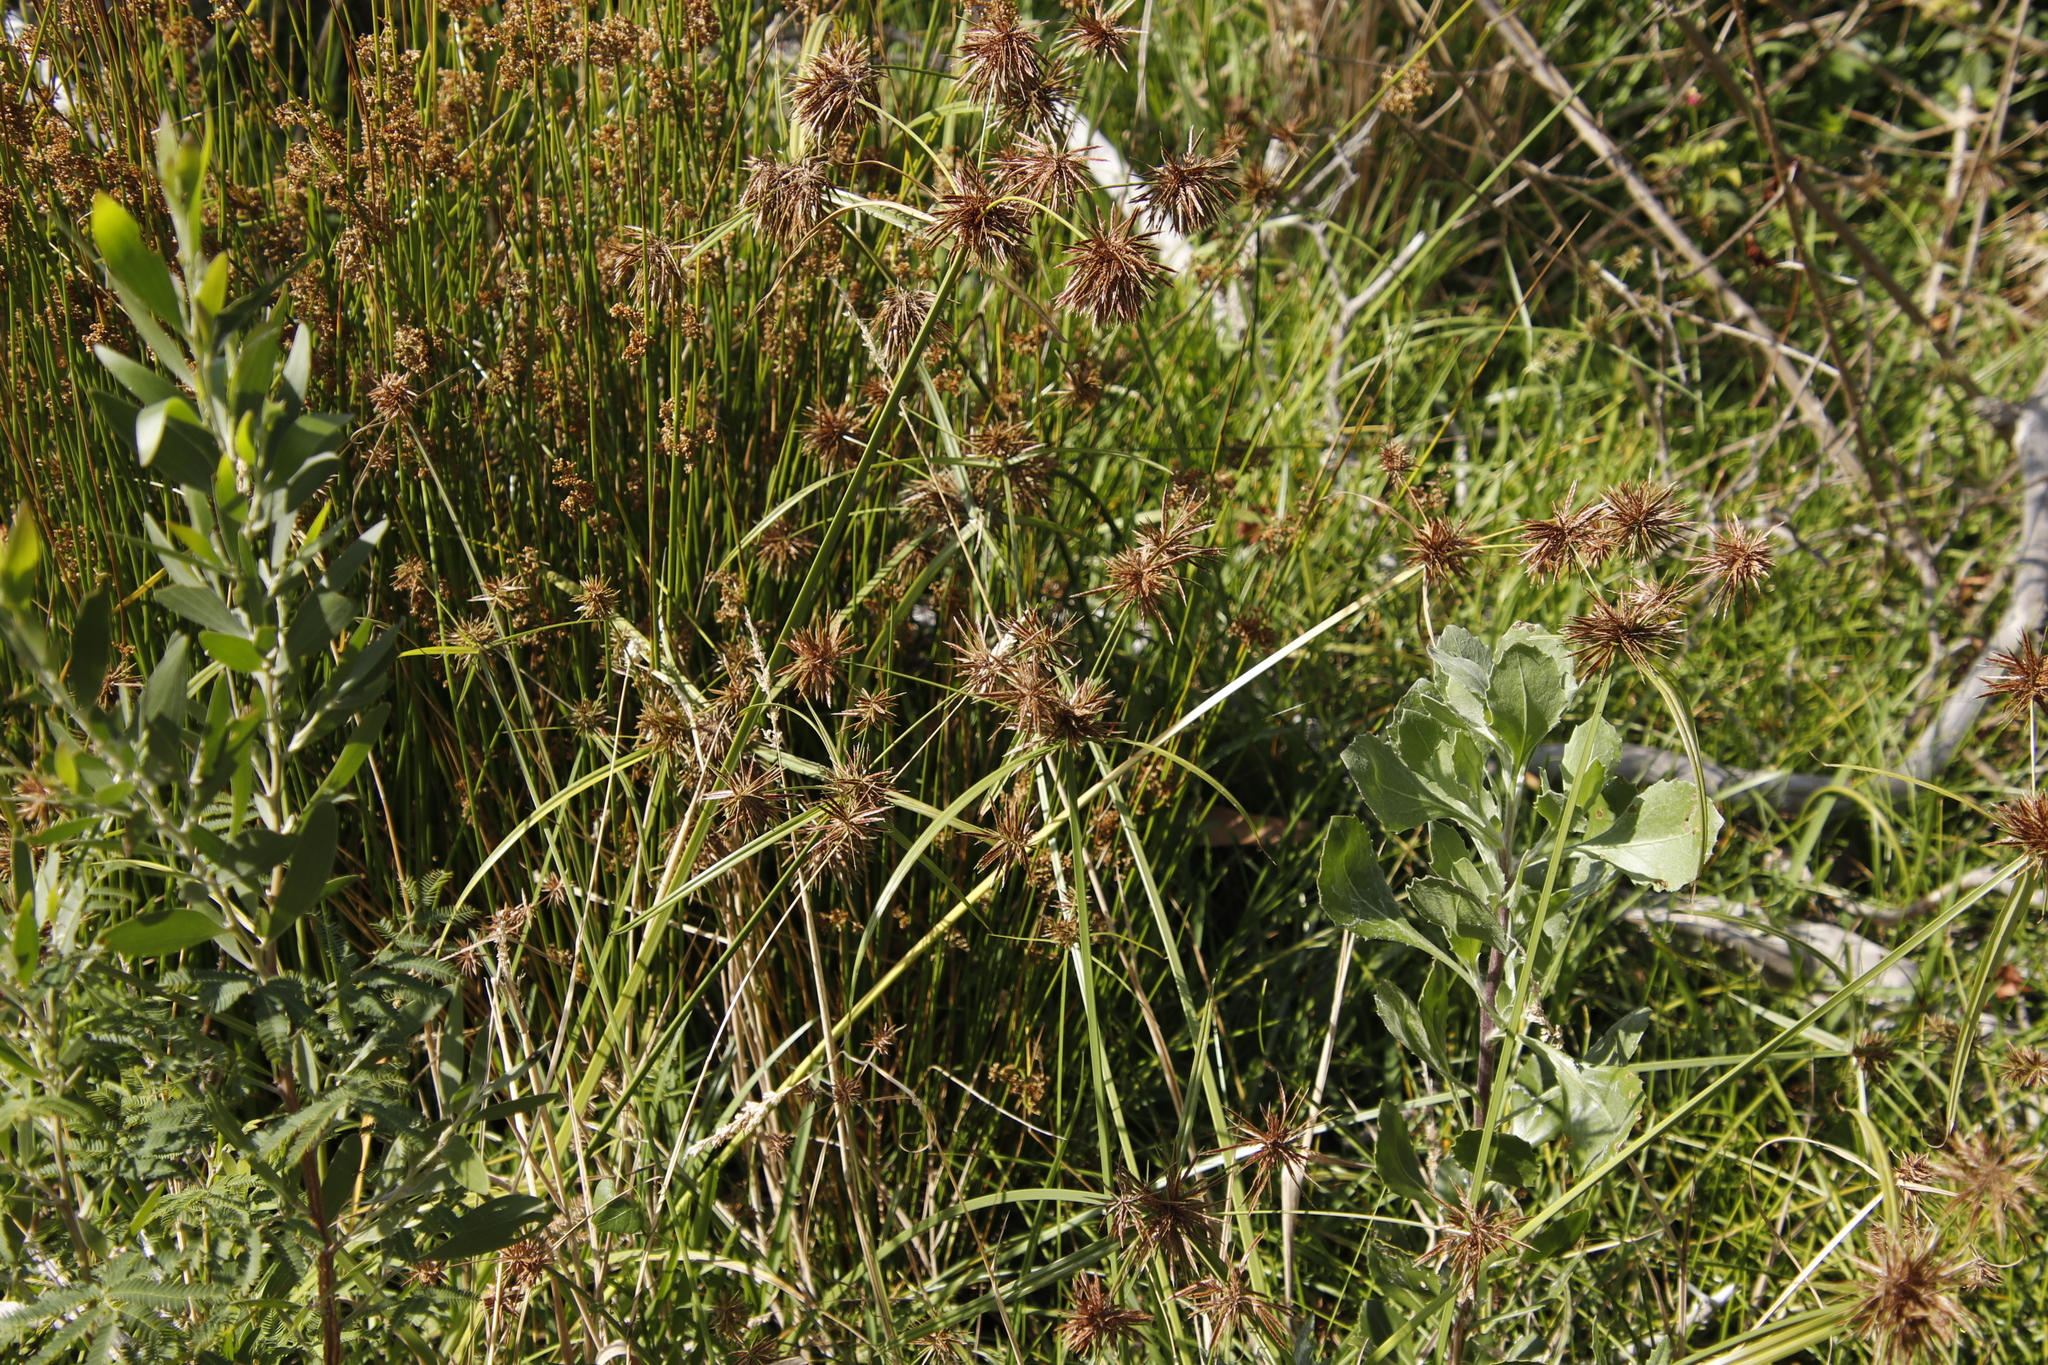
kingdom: Plantae
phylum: Tracheophyta
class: Liliopsida
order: Poales
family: Cyperaceae
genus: Cyperus
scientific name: Cyperus congestus
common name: Dense flat sedge
